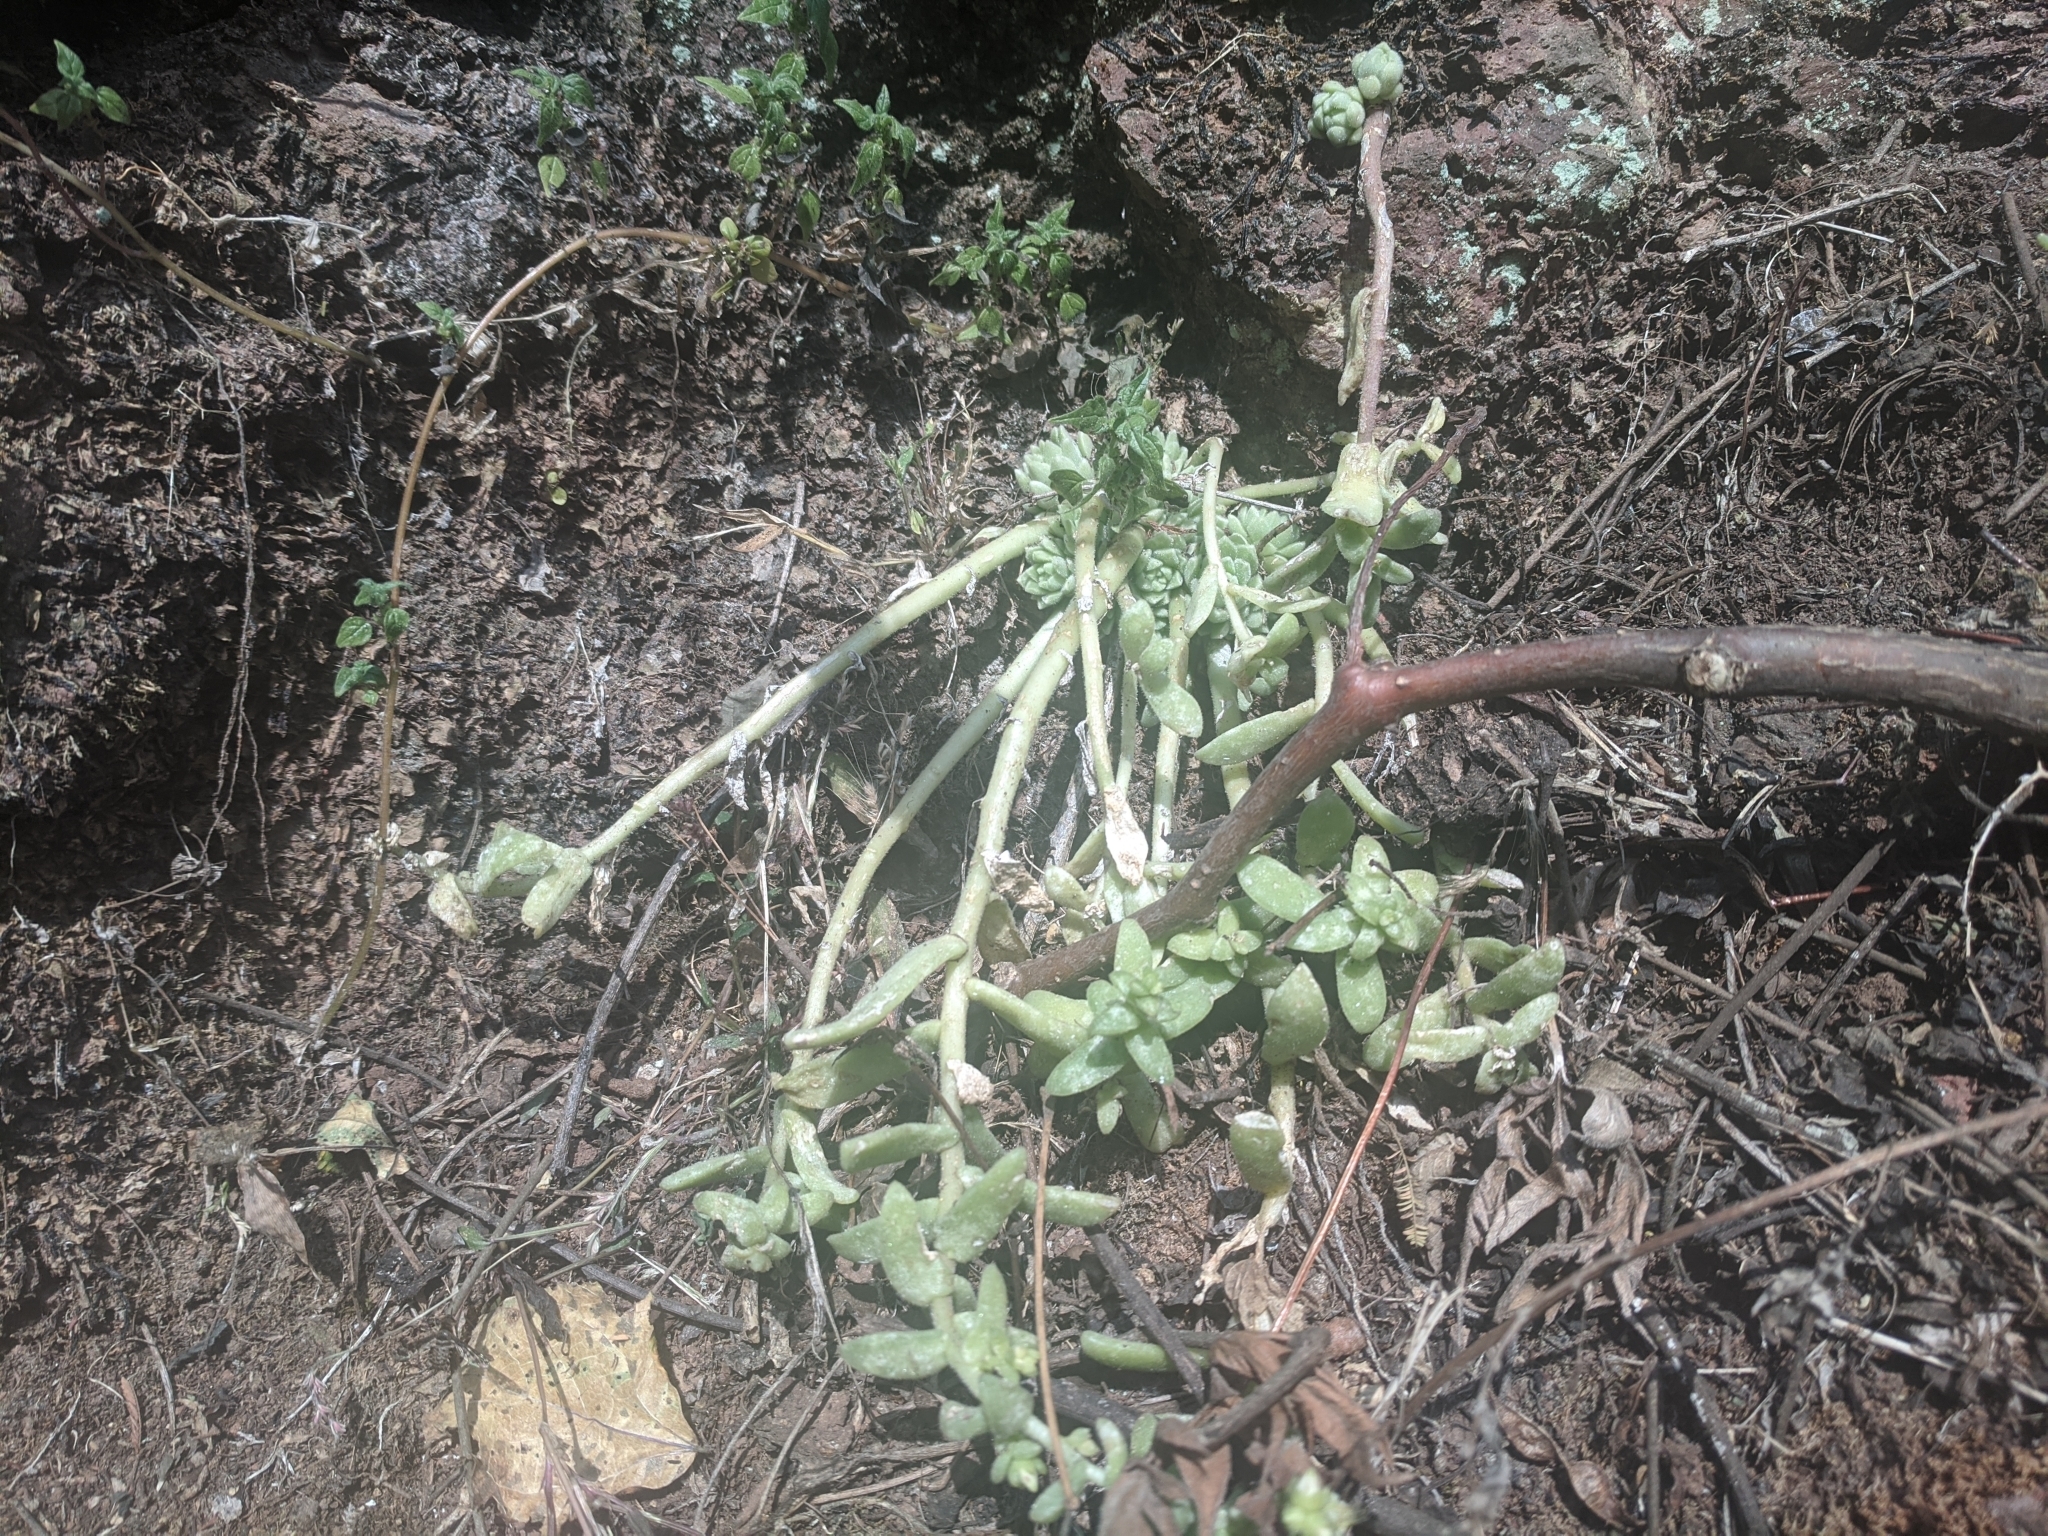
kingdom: Plantae
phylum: Tracheophyta
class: Magnoliopsida
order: Saxifragales
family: Crassulaceae
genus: Sedum
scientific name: Sedum ebracteatum
